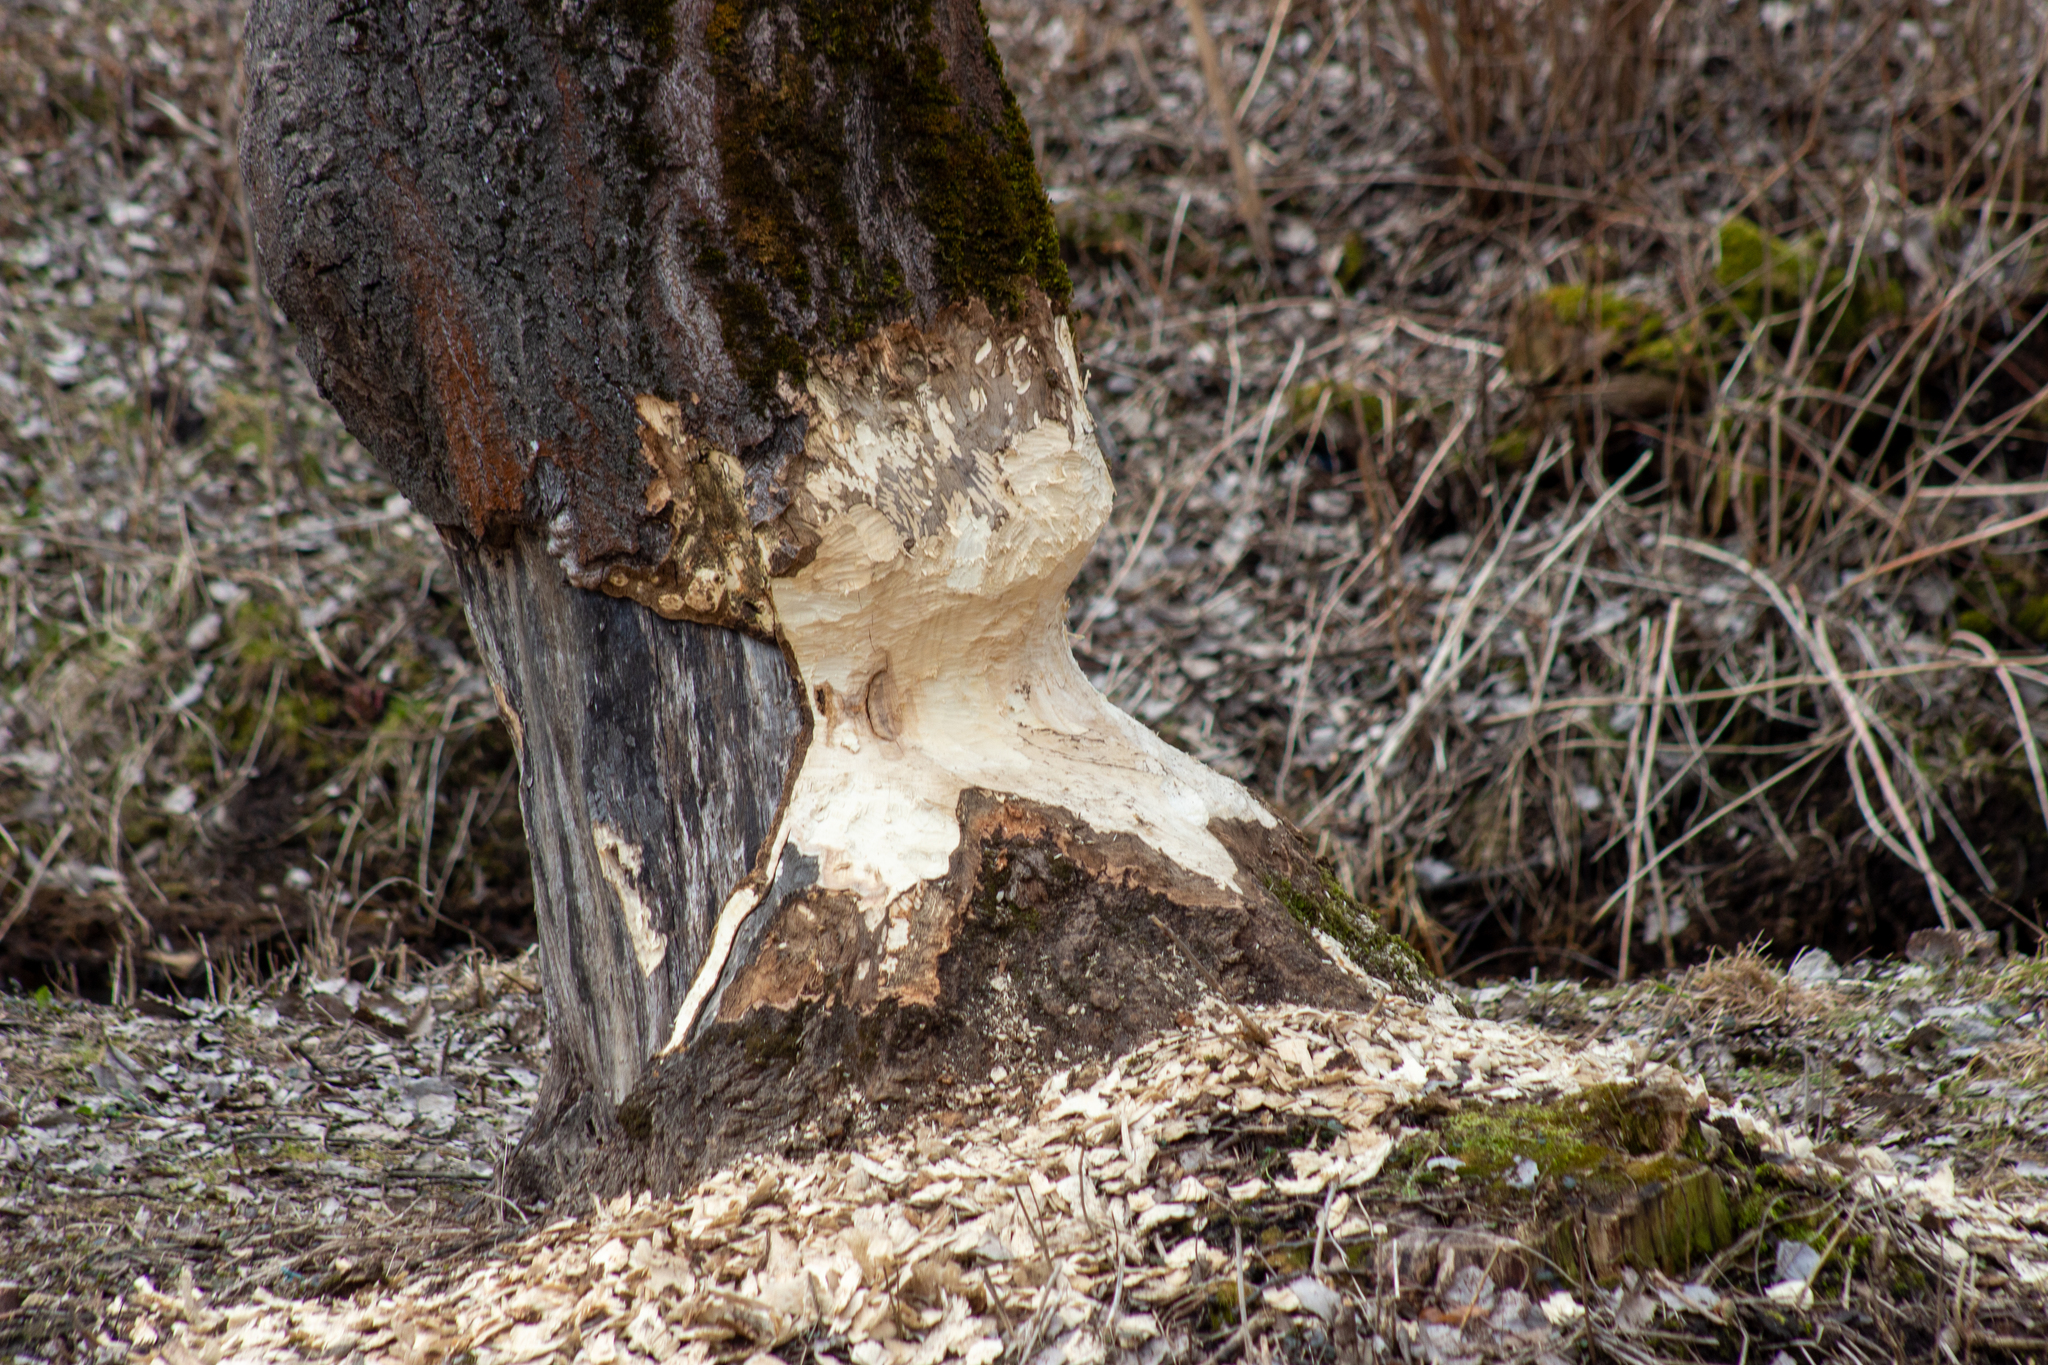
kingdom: Animalia
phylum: Chordata
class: Mammalia
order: Rodentia
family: Castoridae
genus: Castor
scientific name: Castor fiber
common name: Eurasian beaver
